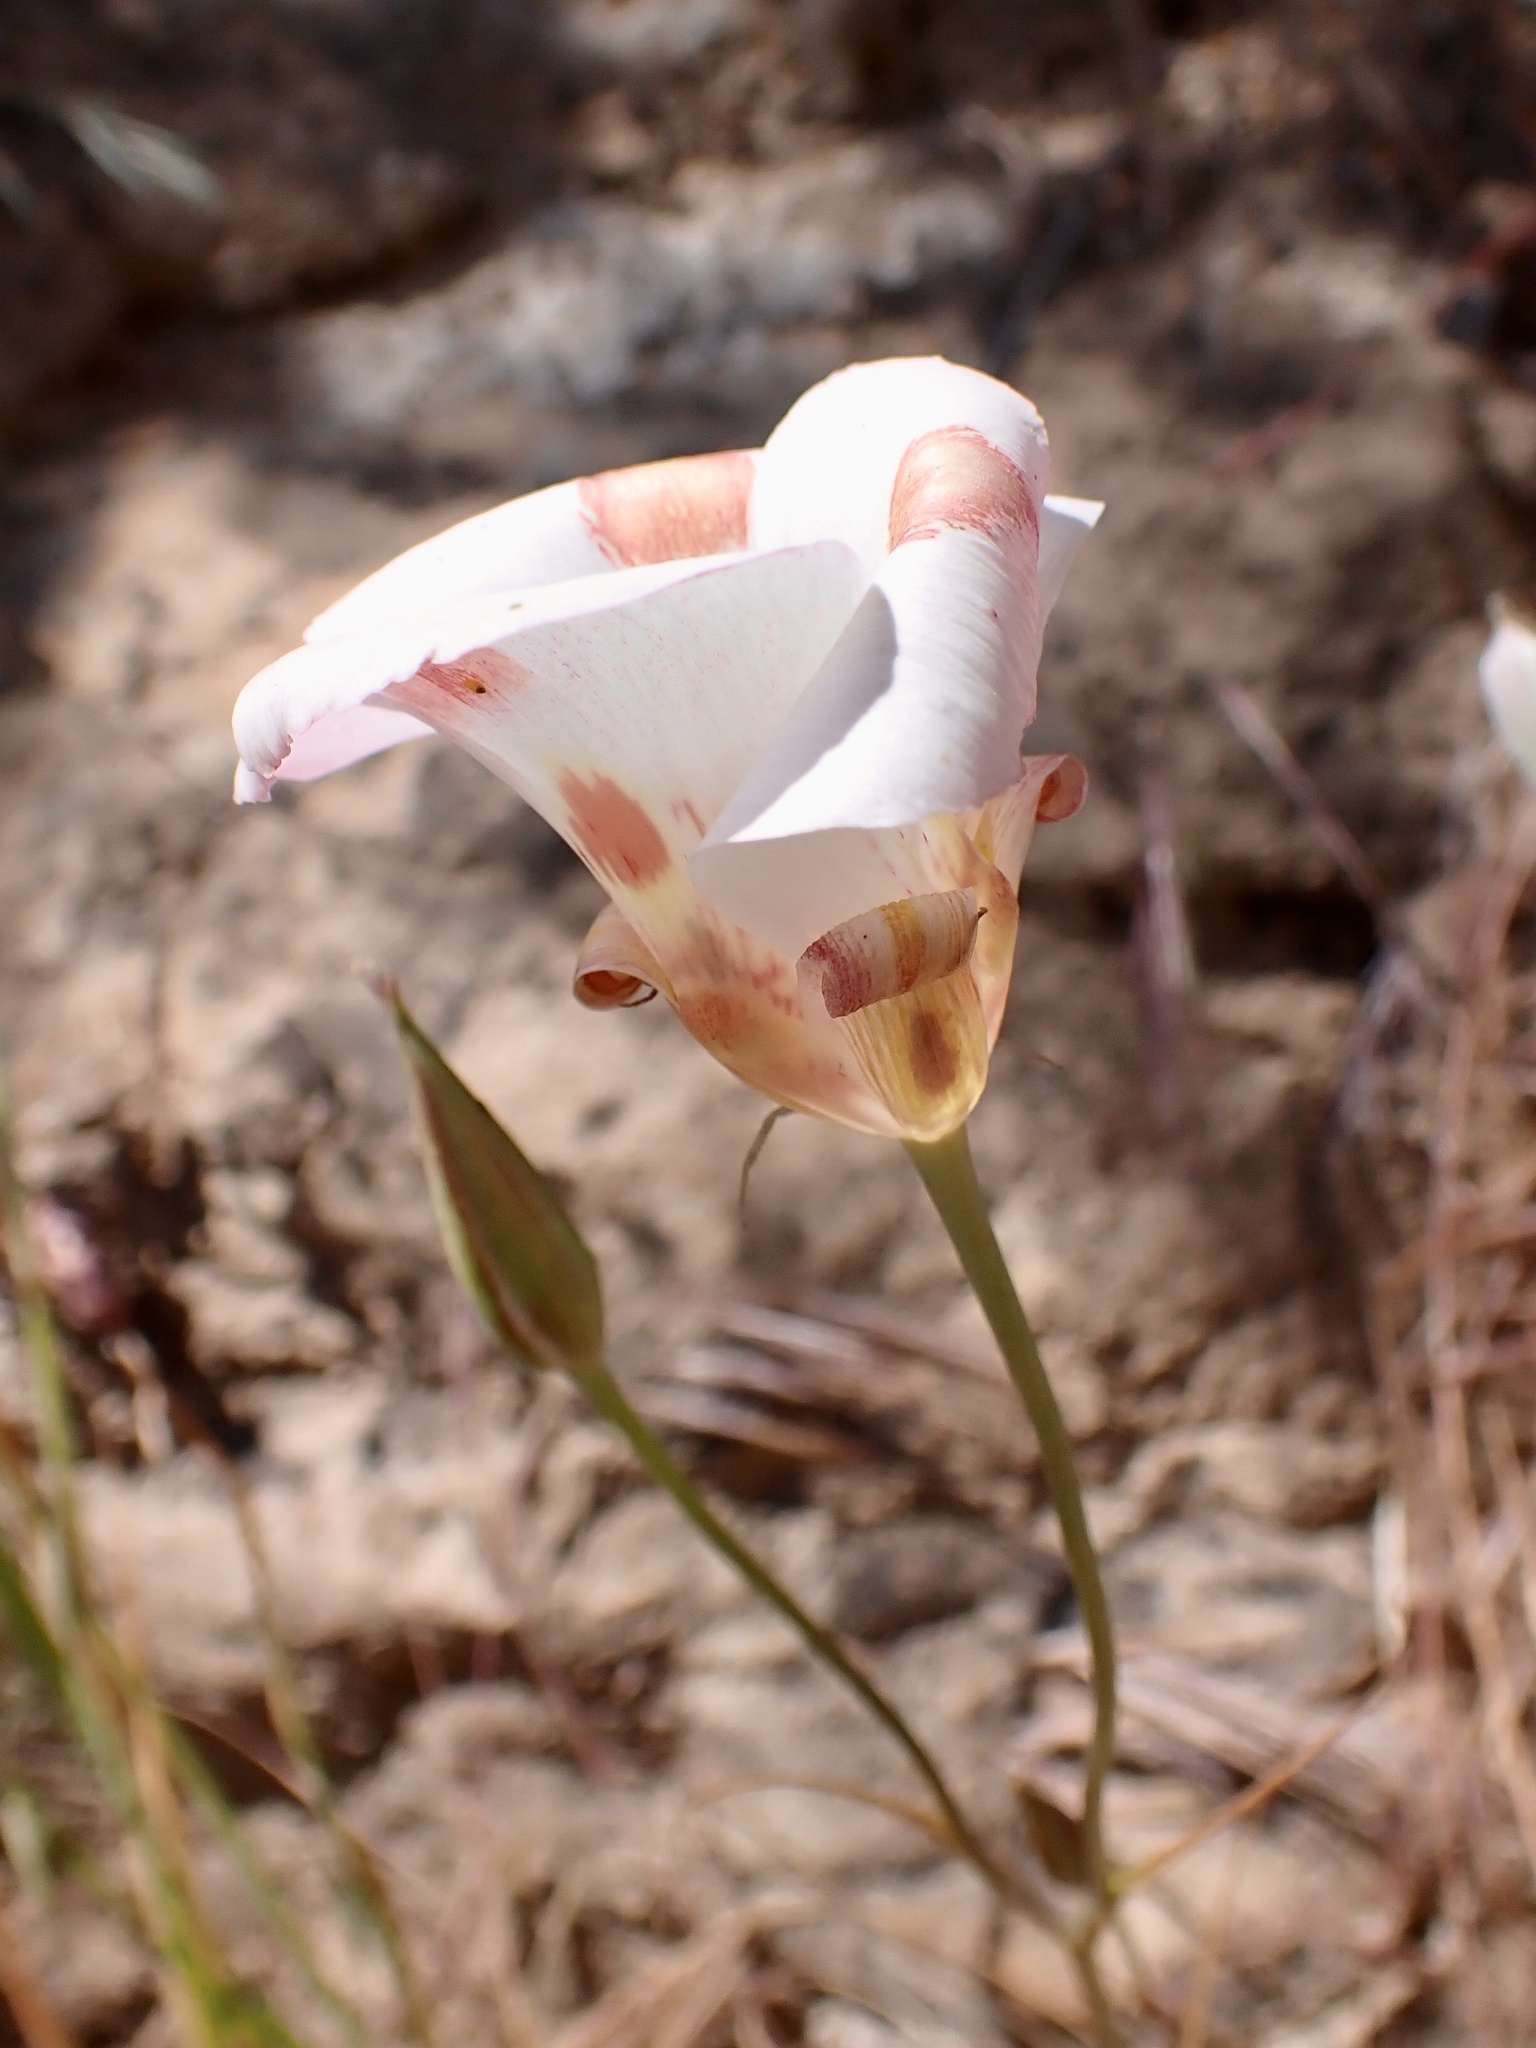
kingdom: Plantae
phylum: Tracheophyta
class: Liliopsida
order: Liliales
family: Liliaceae
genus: Calochortus
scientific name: Calochortus venustus
